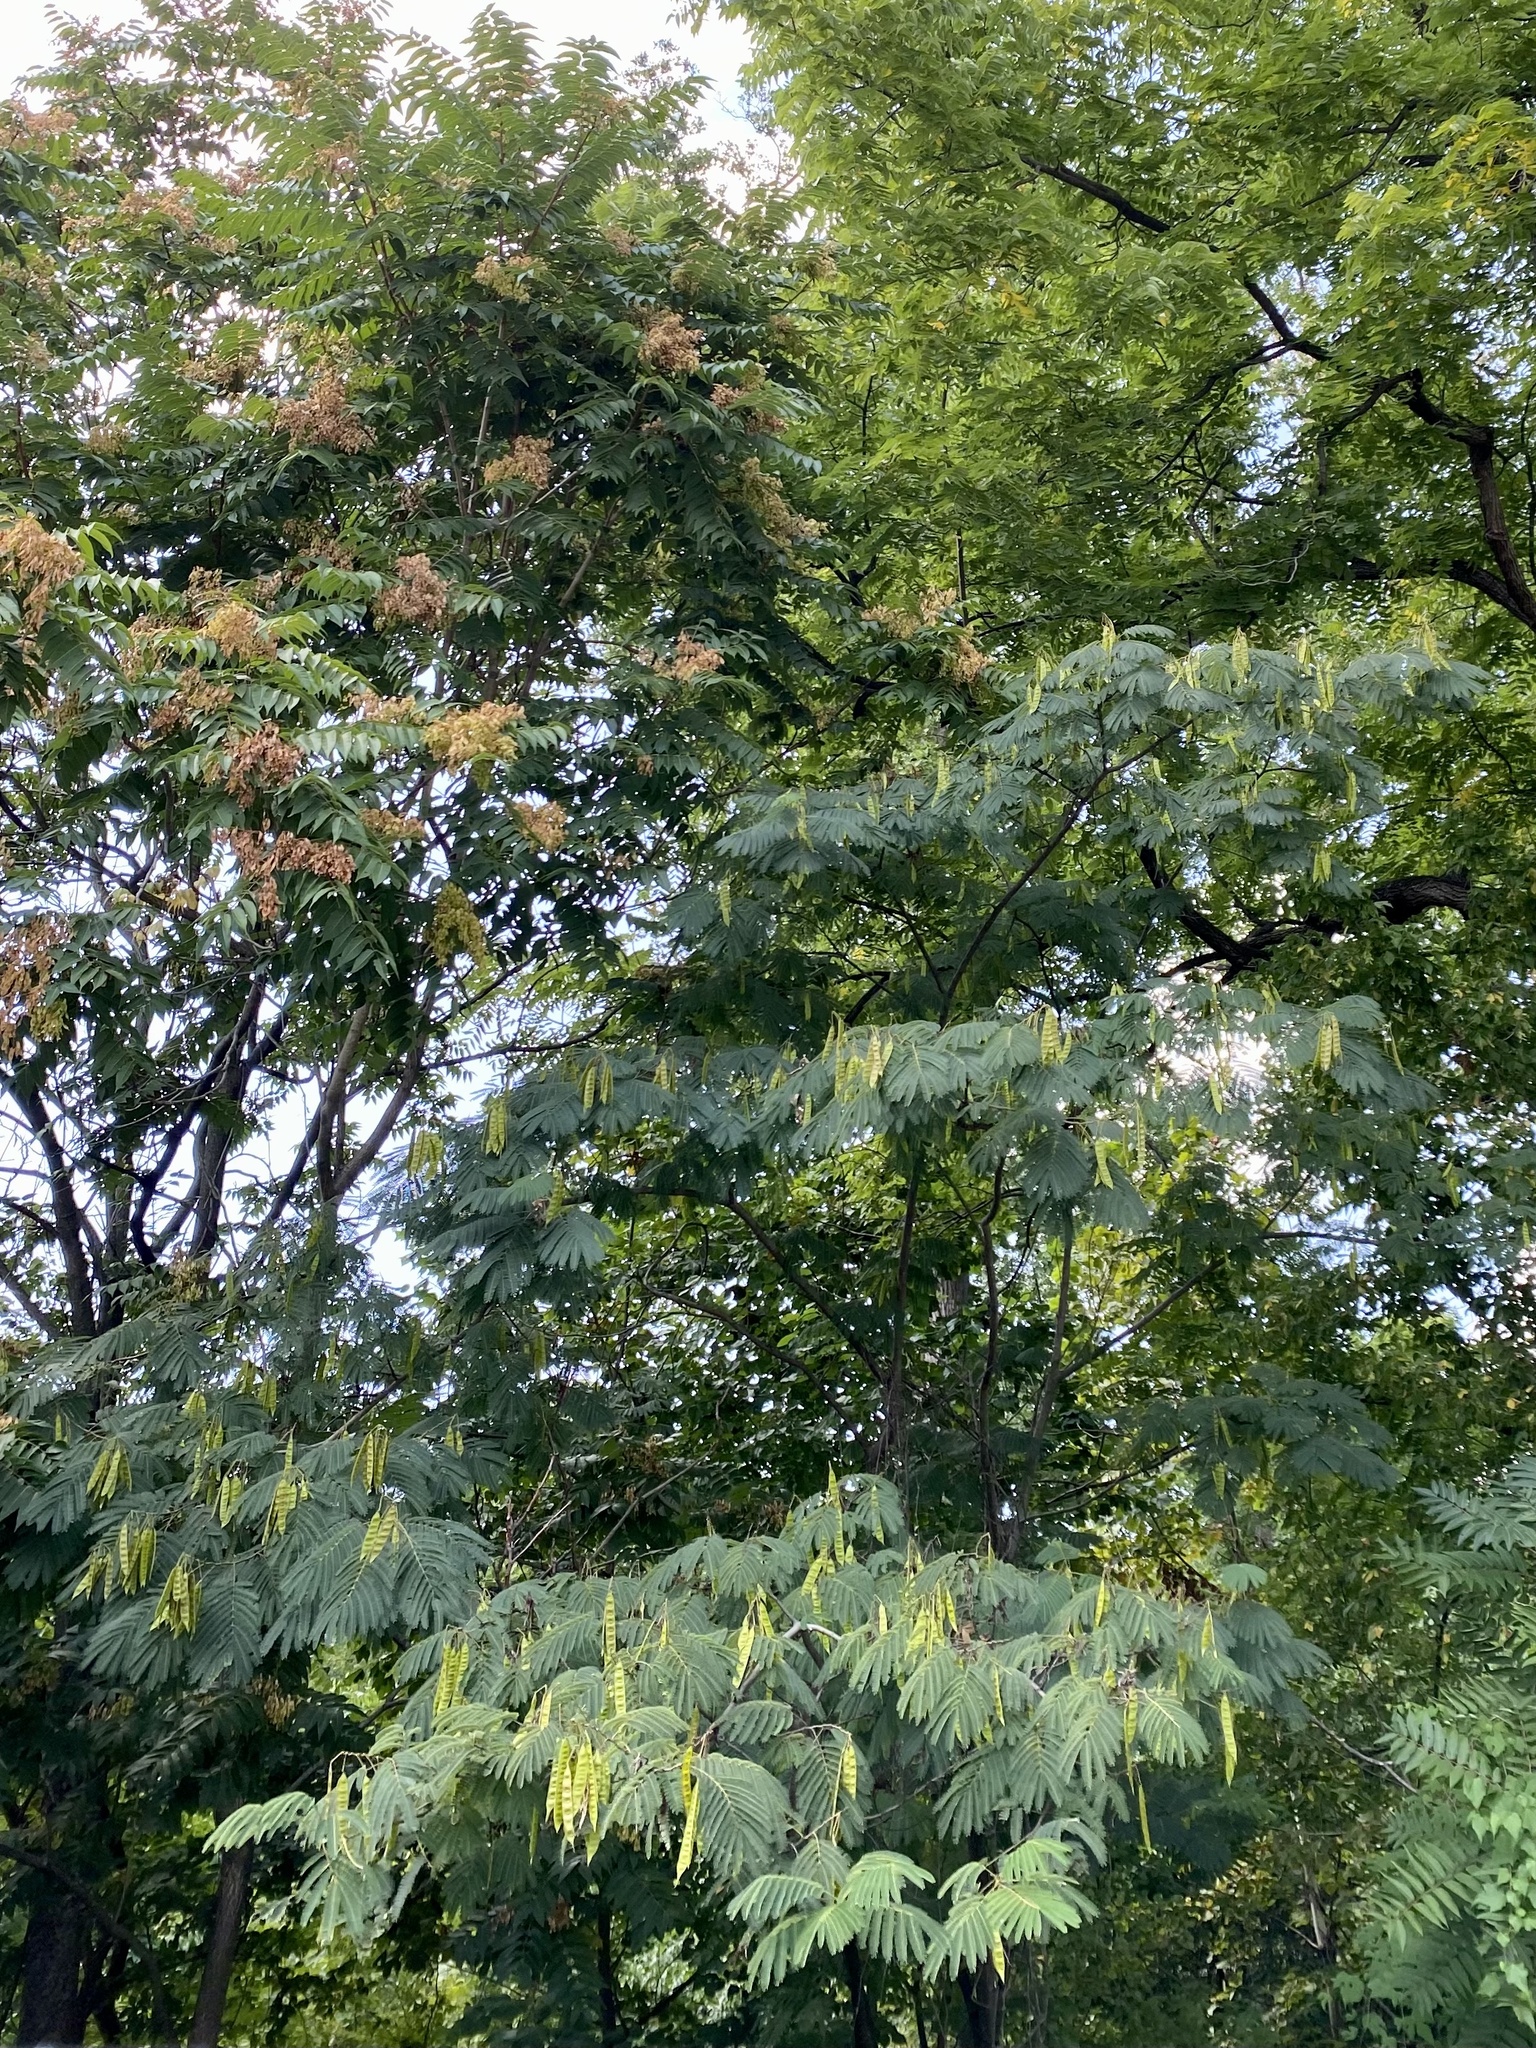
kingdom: Plantae
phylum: Tracheophyta
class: Magnoliopsida
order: Fabales
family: Fabaceae
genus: Albizia
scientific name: Albizia julibrissin
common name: Silktree
